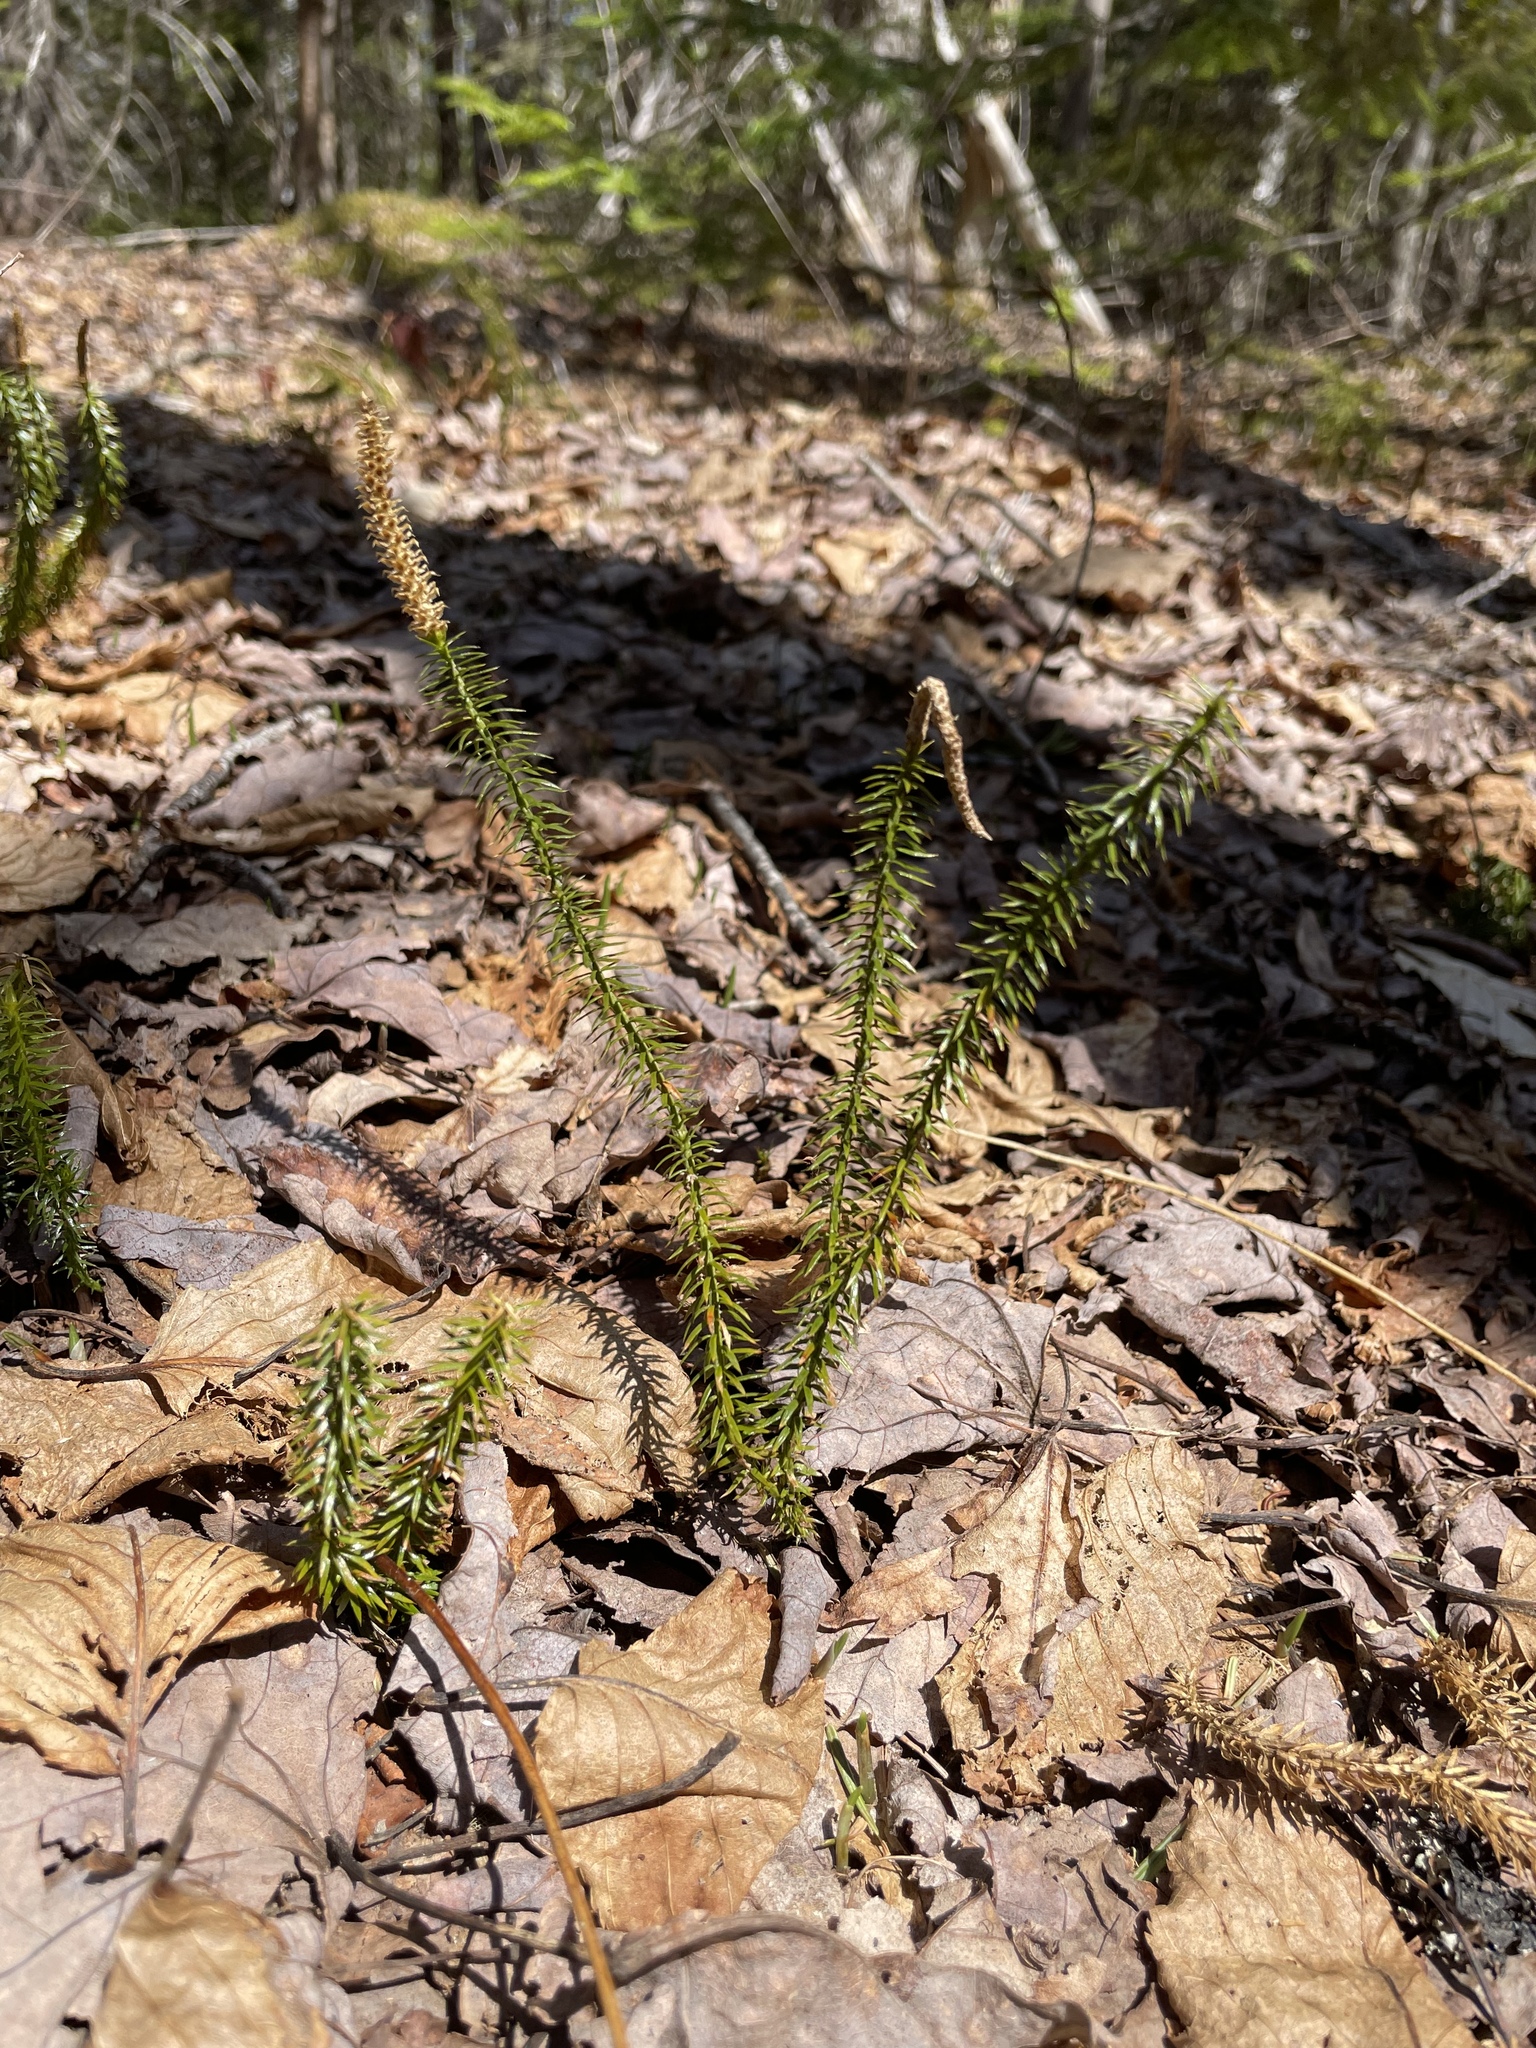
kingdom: Plantae
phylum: Tracheophyta
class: Lycopodiopsida
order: Lycopodiales
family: Lycopodiaceae
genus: Spinulum
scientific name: Spinulum annotinum
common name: Interrupted club-moss
